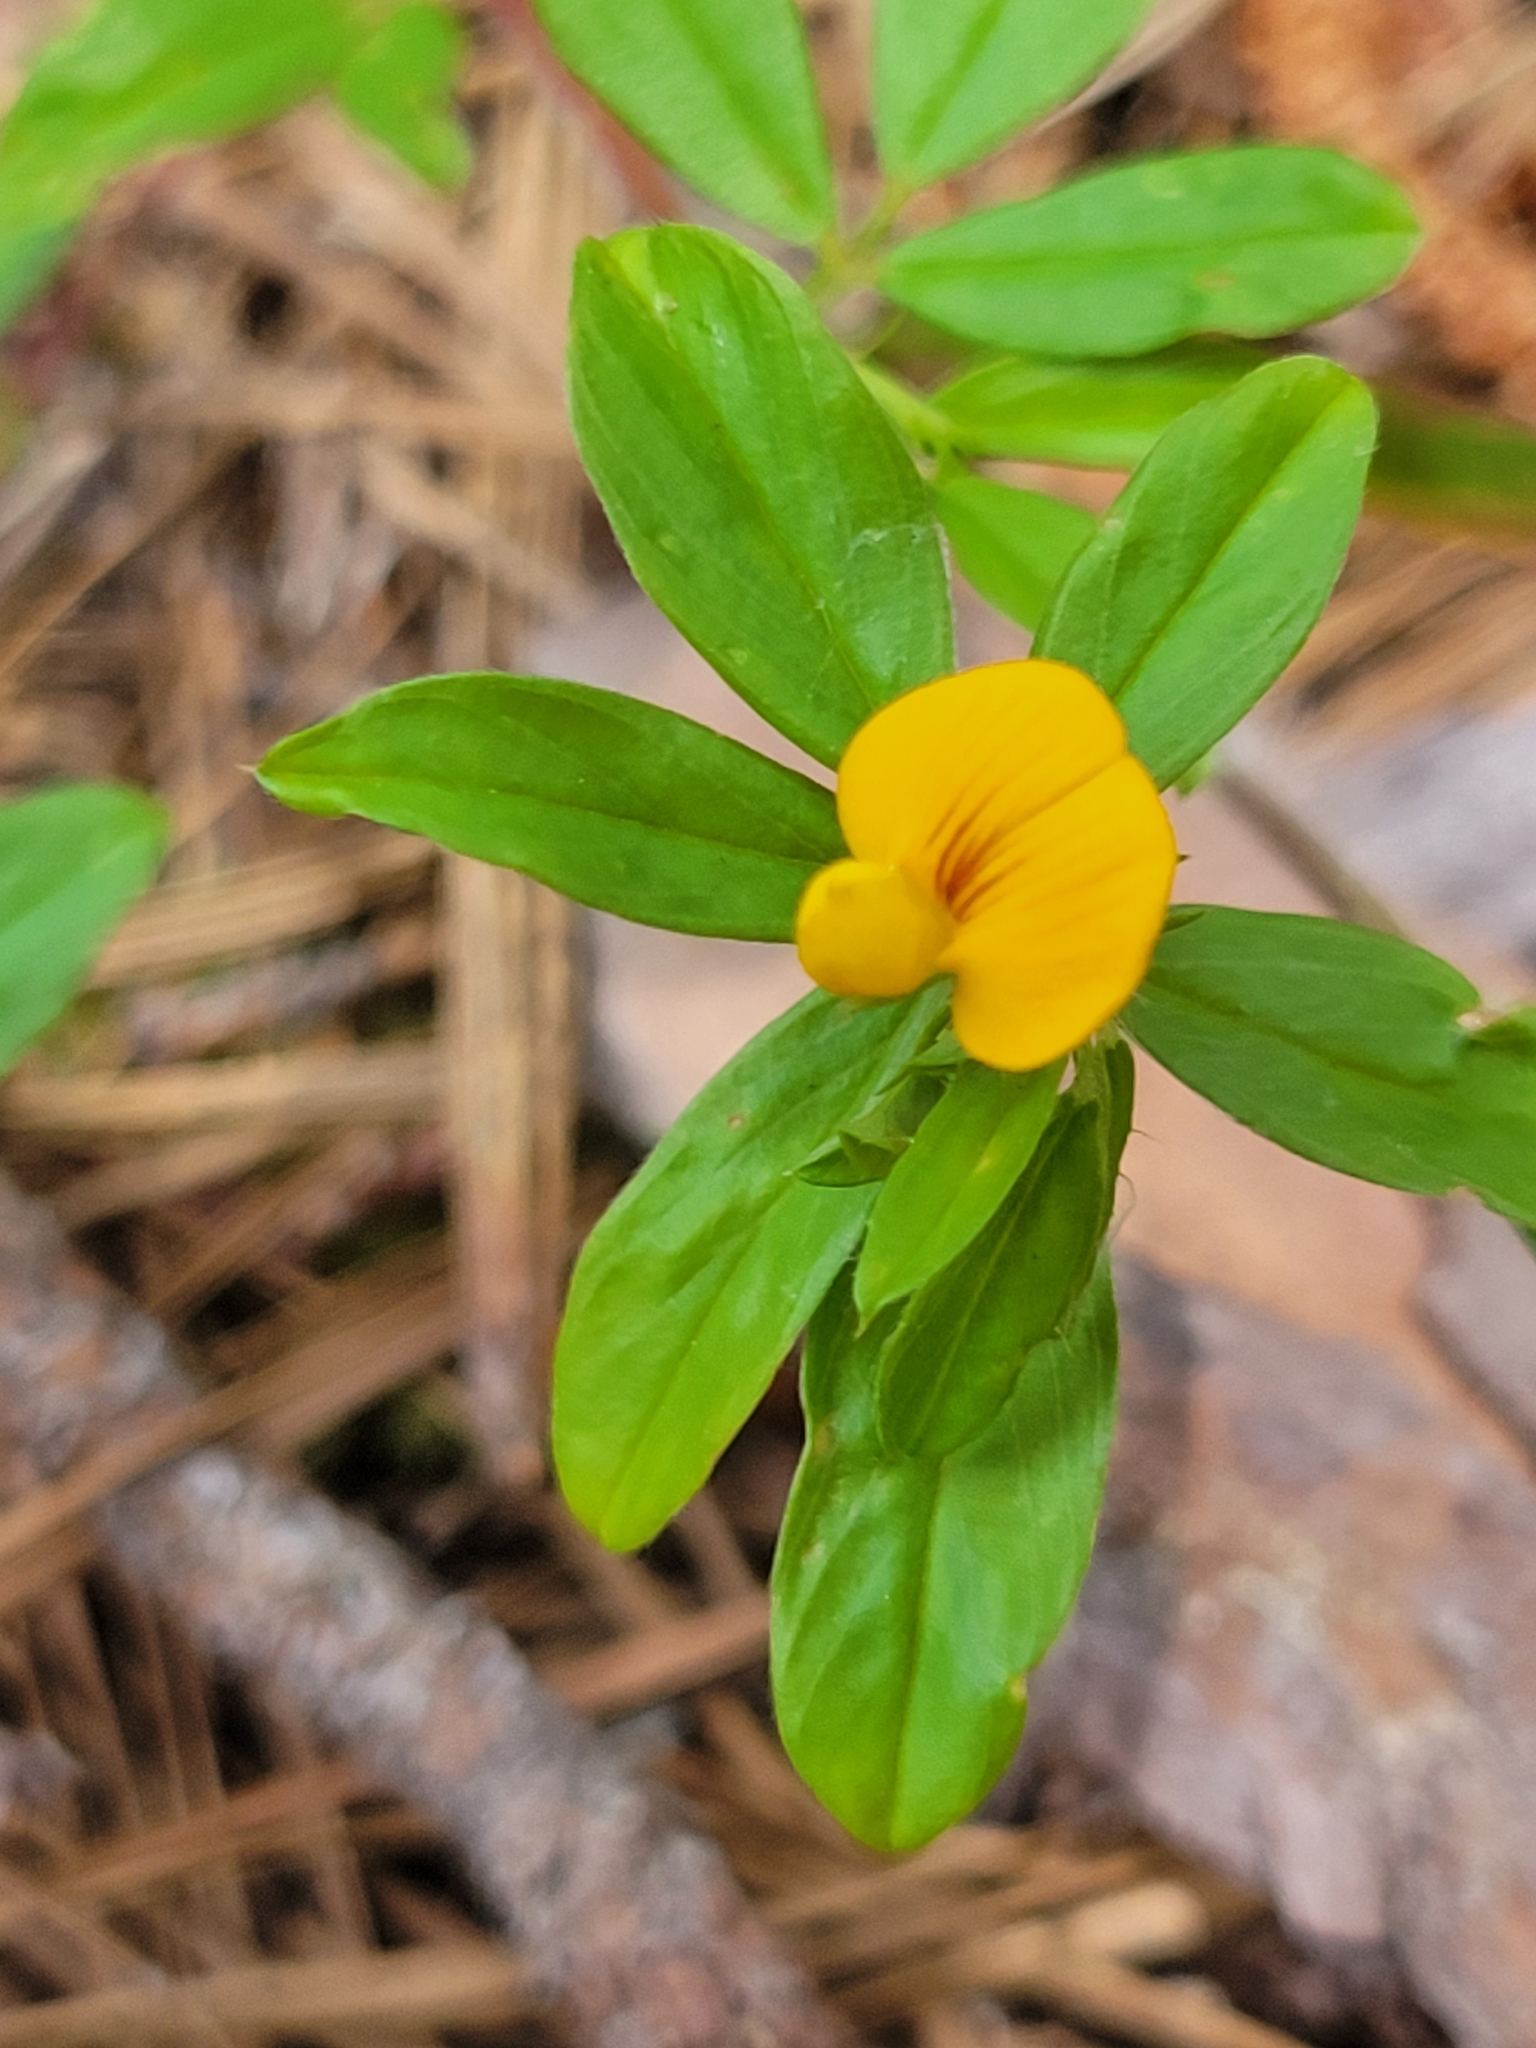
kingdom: Plantae
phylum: Tracheophyta
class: Magnoliopsida
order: Fabales
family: Fabaceae
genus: Stylosanthes
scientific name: Stylosanthes biflora
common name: Two-flower pencil-flower
